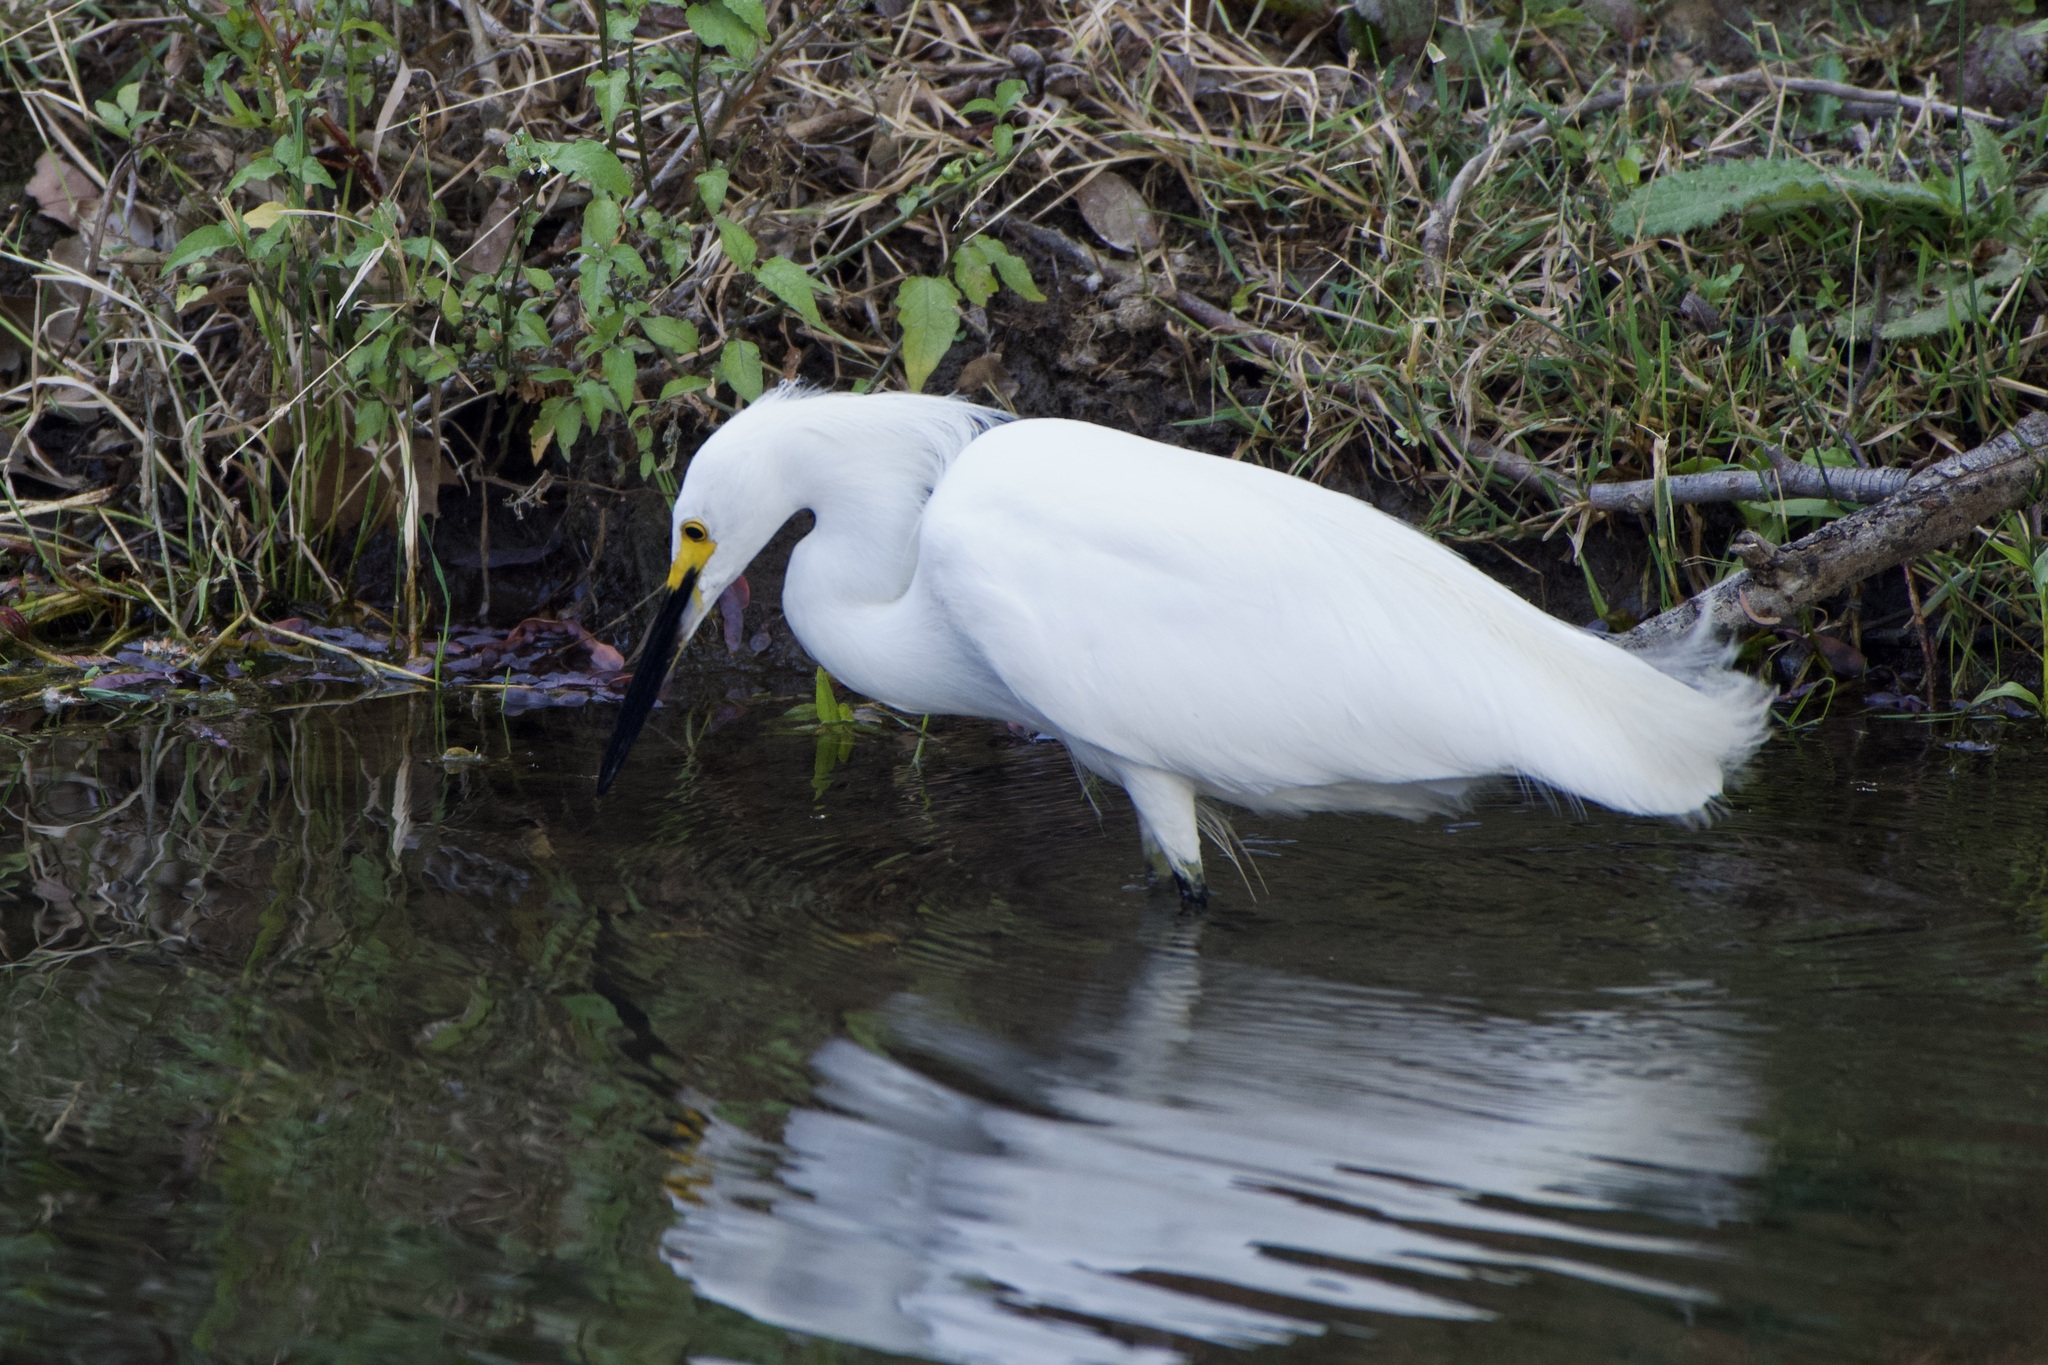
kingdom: Animalia
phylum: Chordata
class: Aves
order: Pelecaniformes
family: Ardeidae
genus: Egretta
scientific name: Egretta thula
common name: Snowy egret
